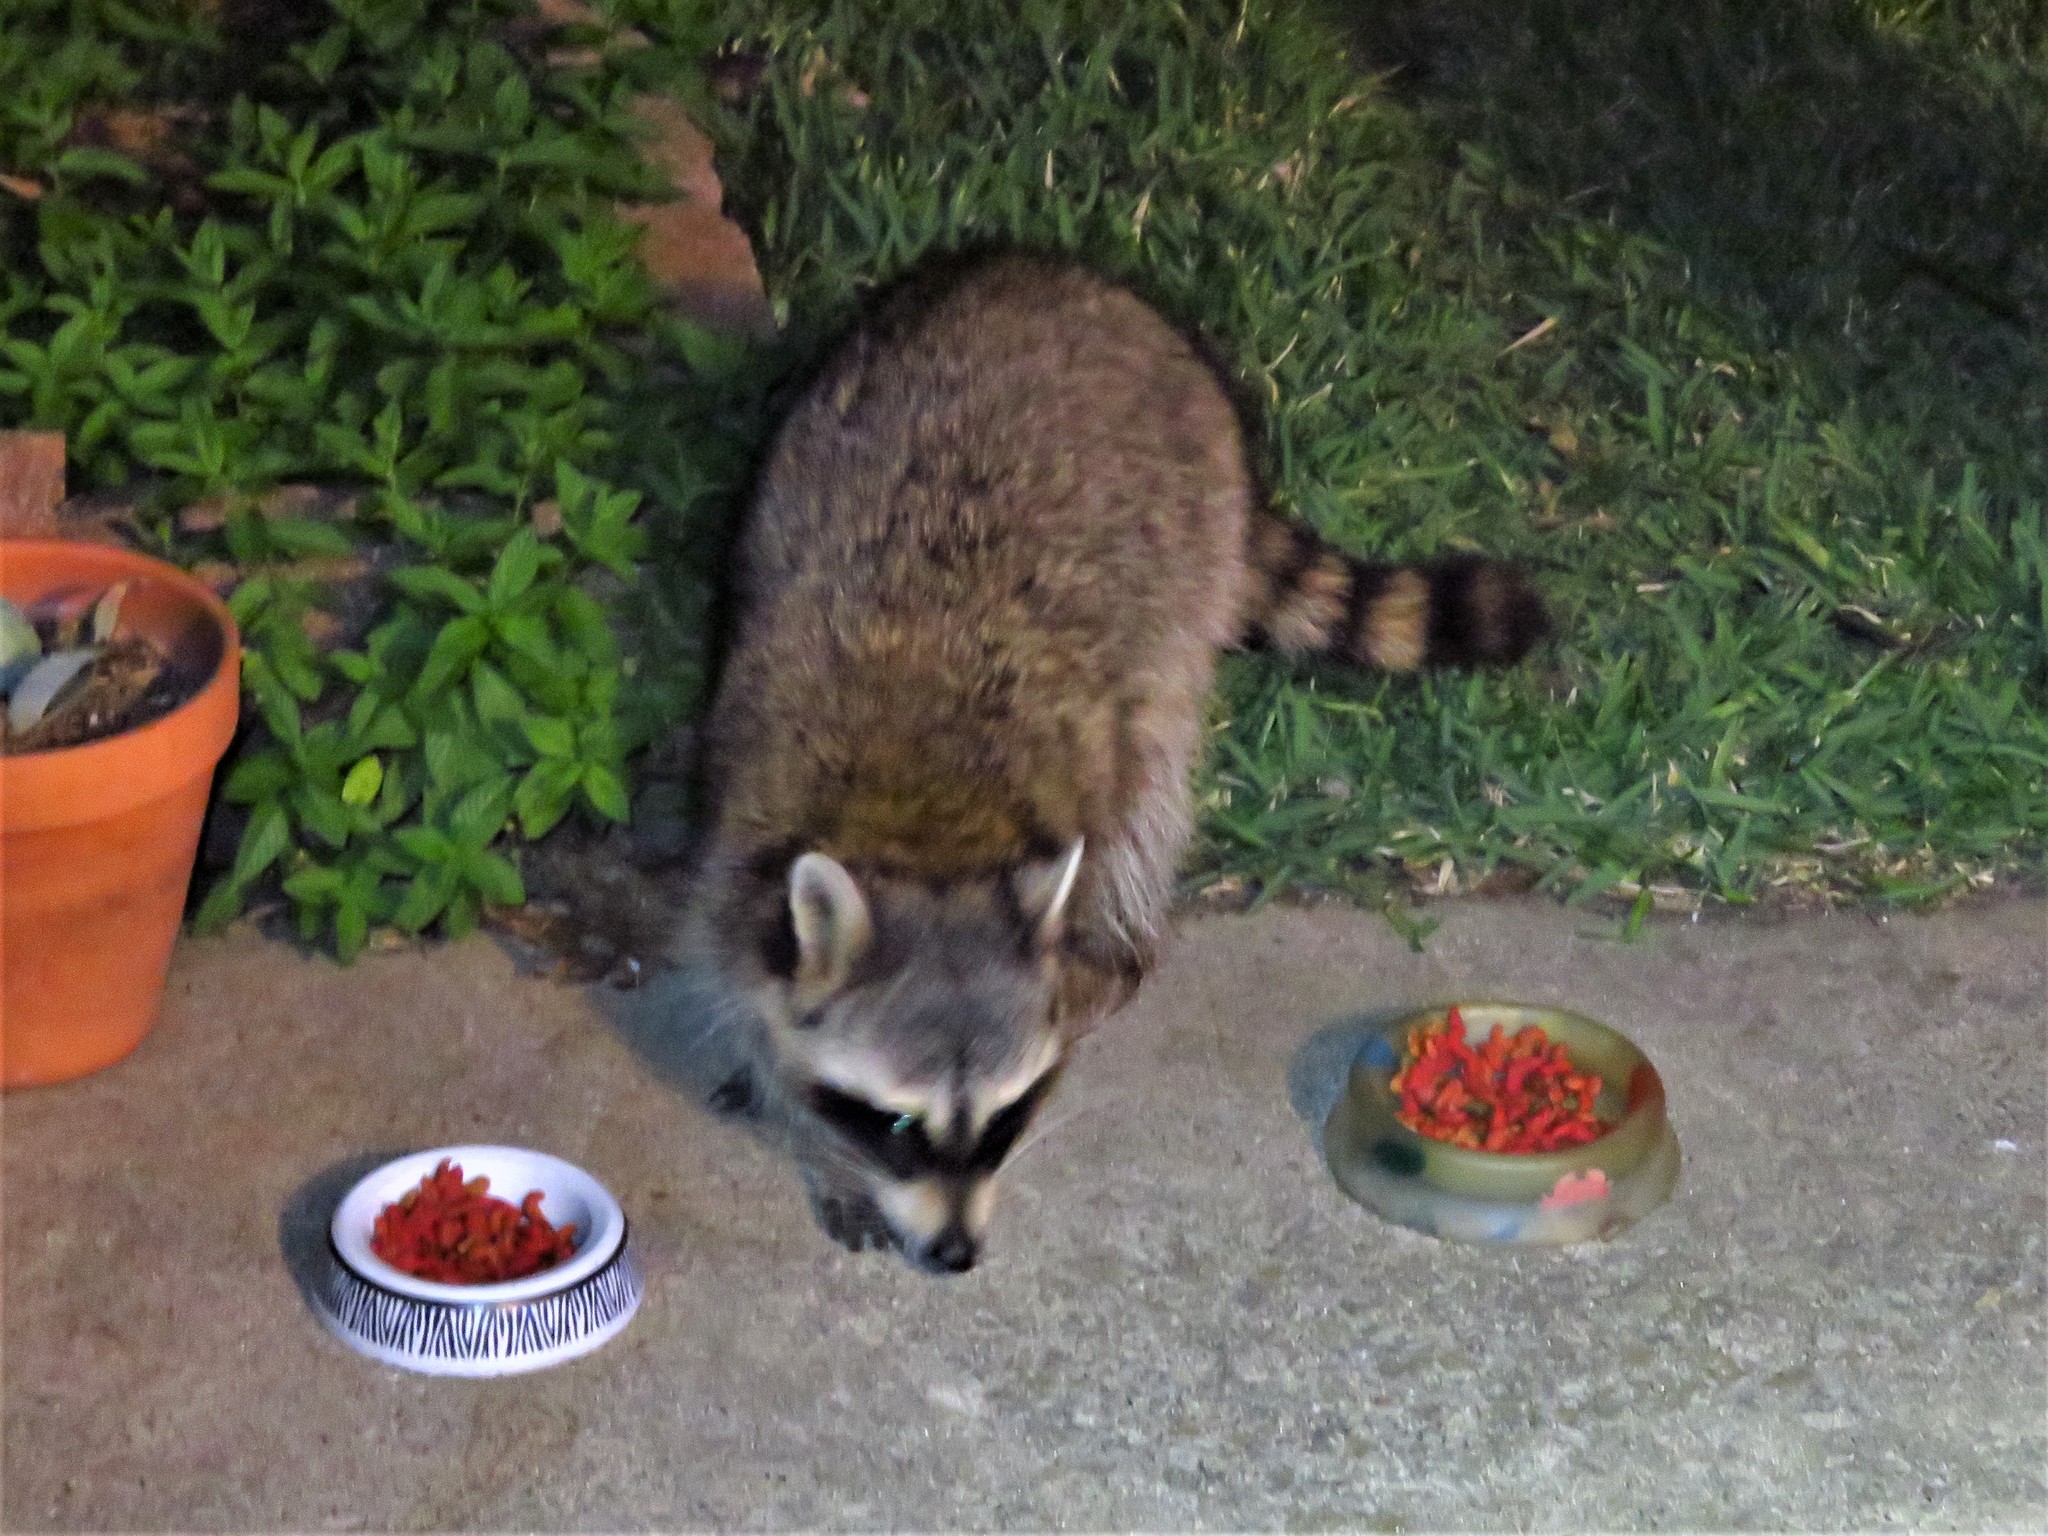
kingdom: Animalia
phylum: Chordata
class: Mammalia
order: Carnivora
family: Procyonidae
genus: Procyon
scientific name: Procyon lotor
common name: Raccoon
